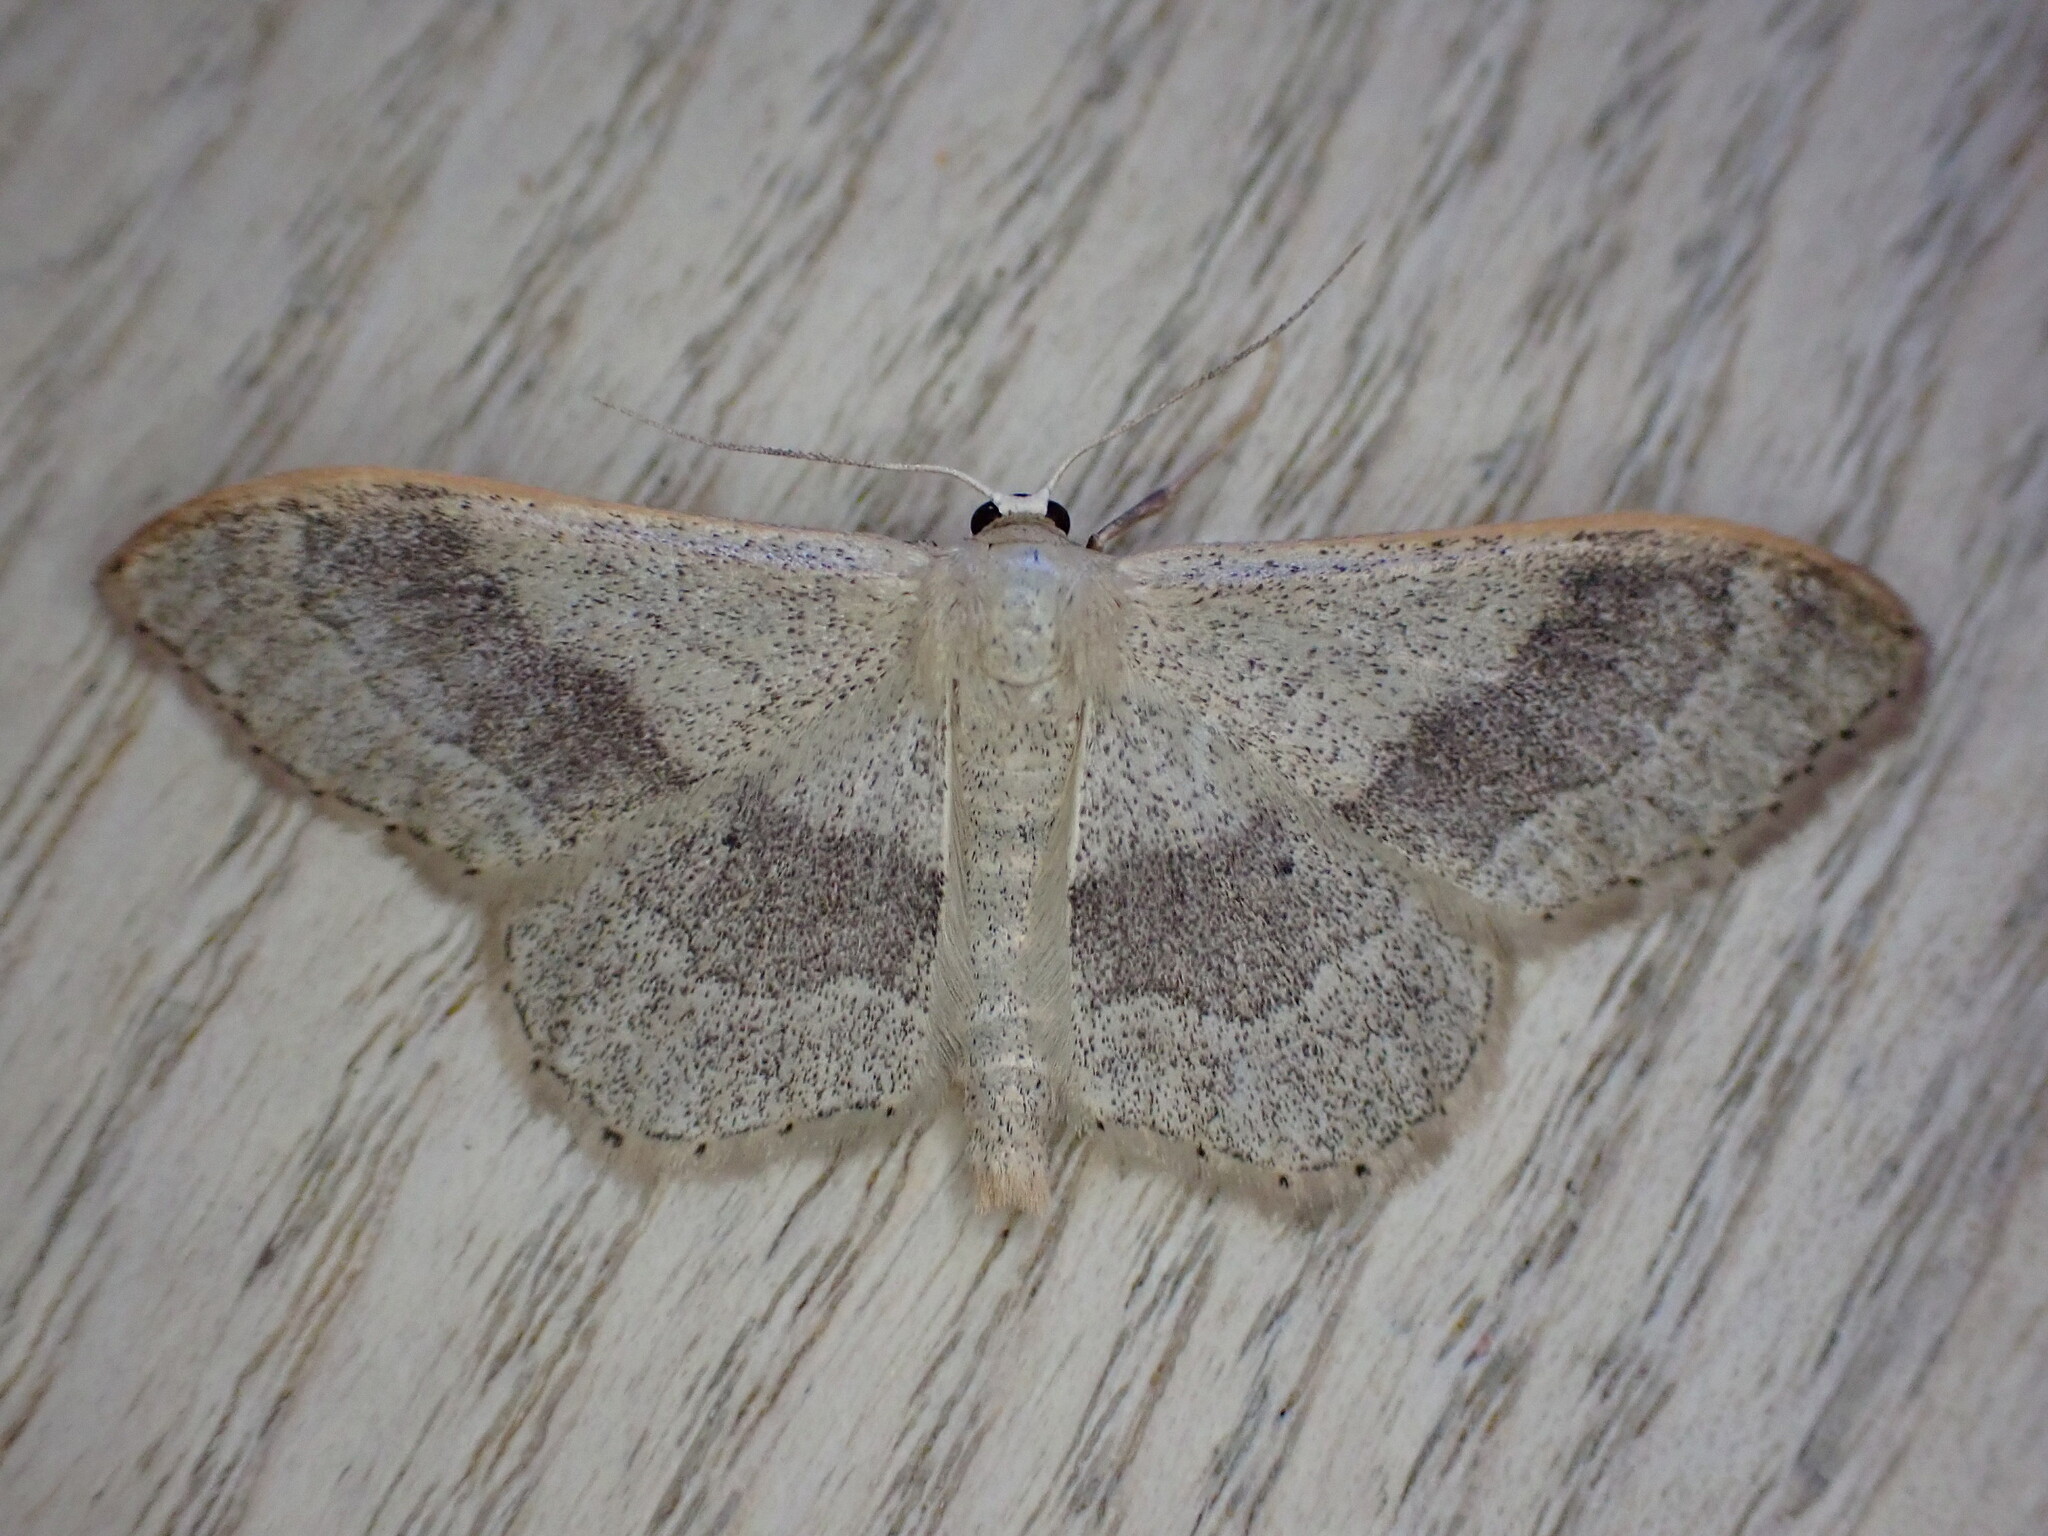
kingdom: Animalia
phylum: Arthropoda
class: Insecta
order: Lepidoptera
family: Geometridae
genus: Idaea
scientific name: Idaea aversata
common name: Riband wave
